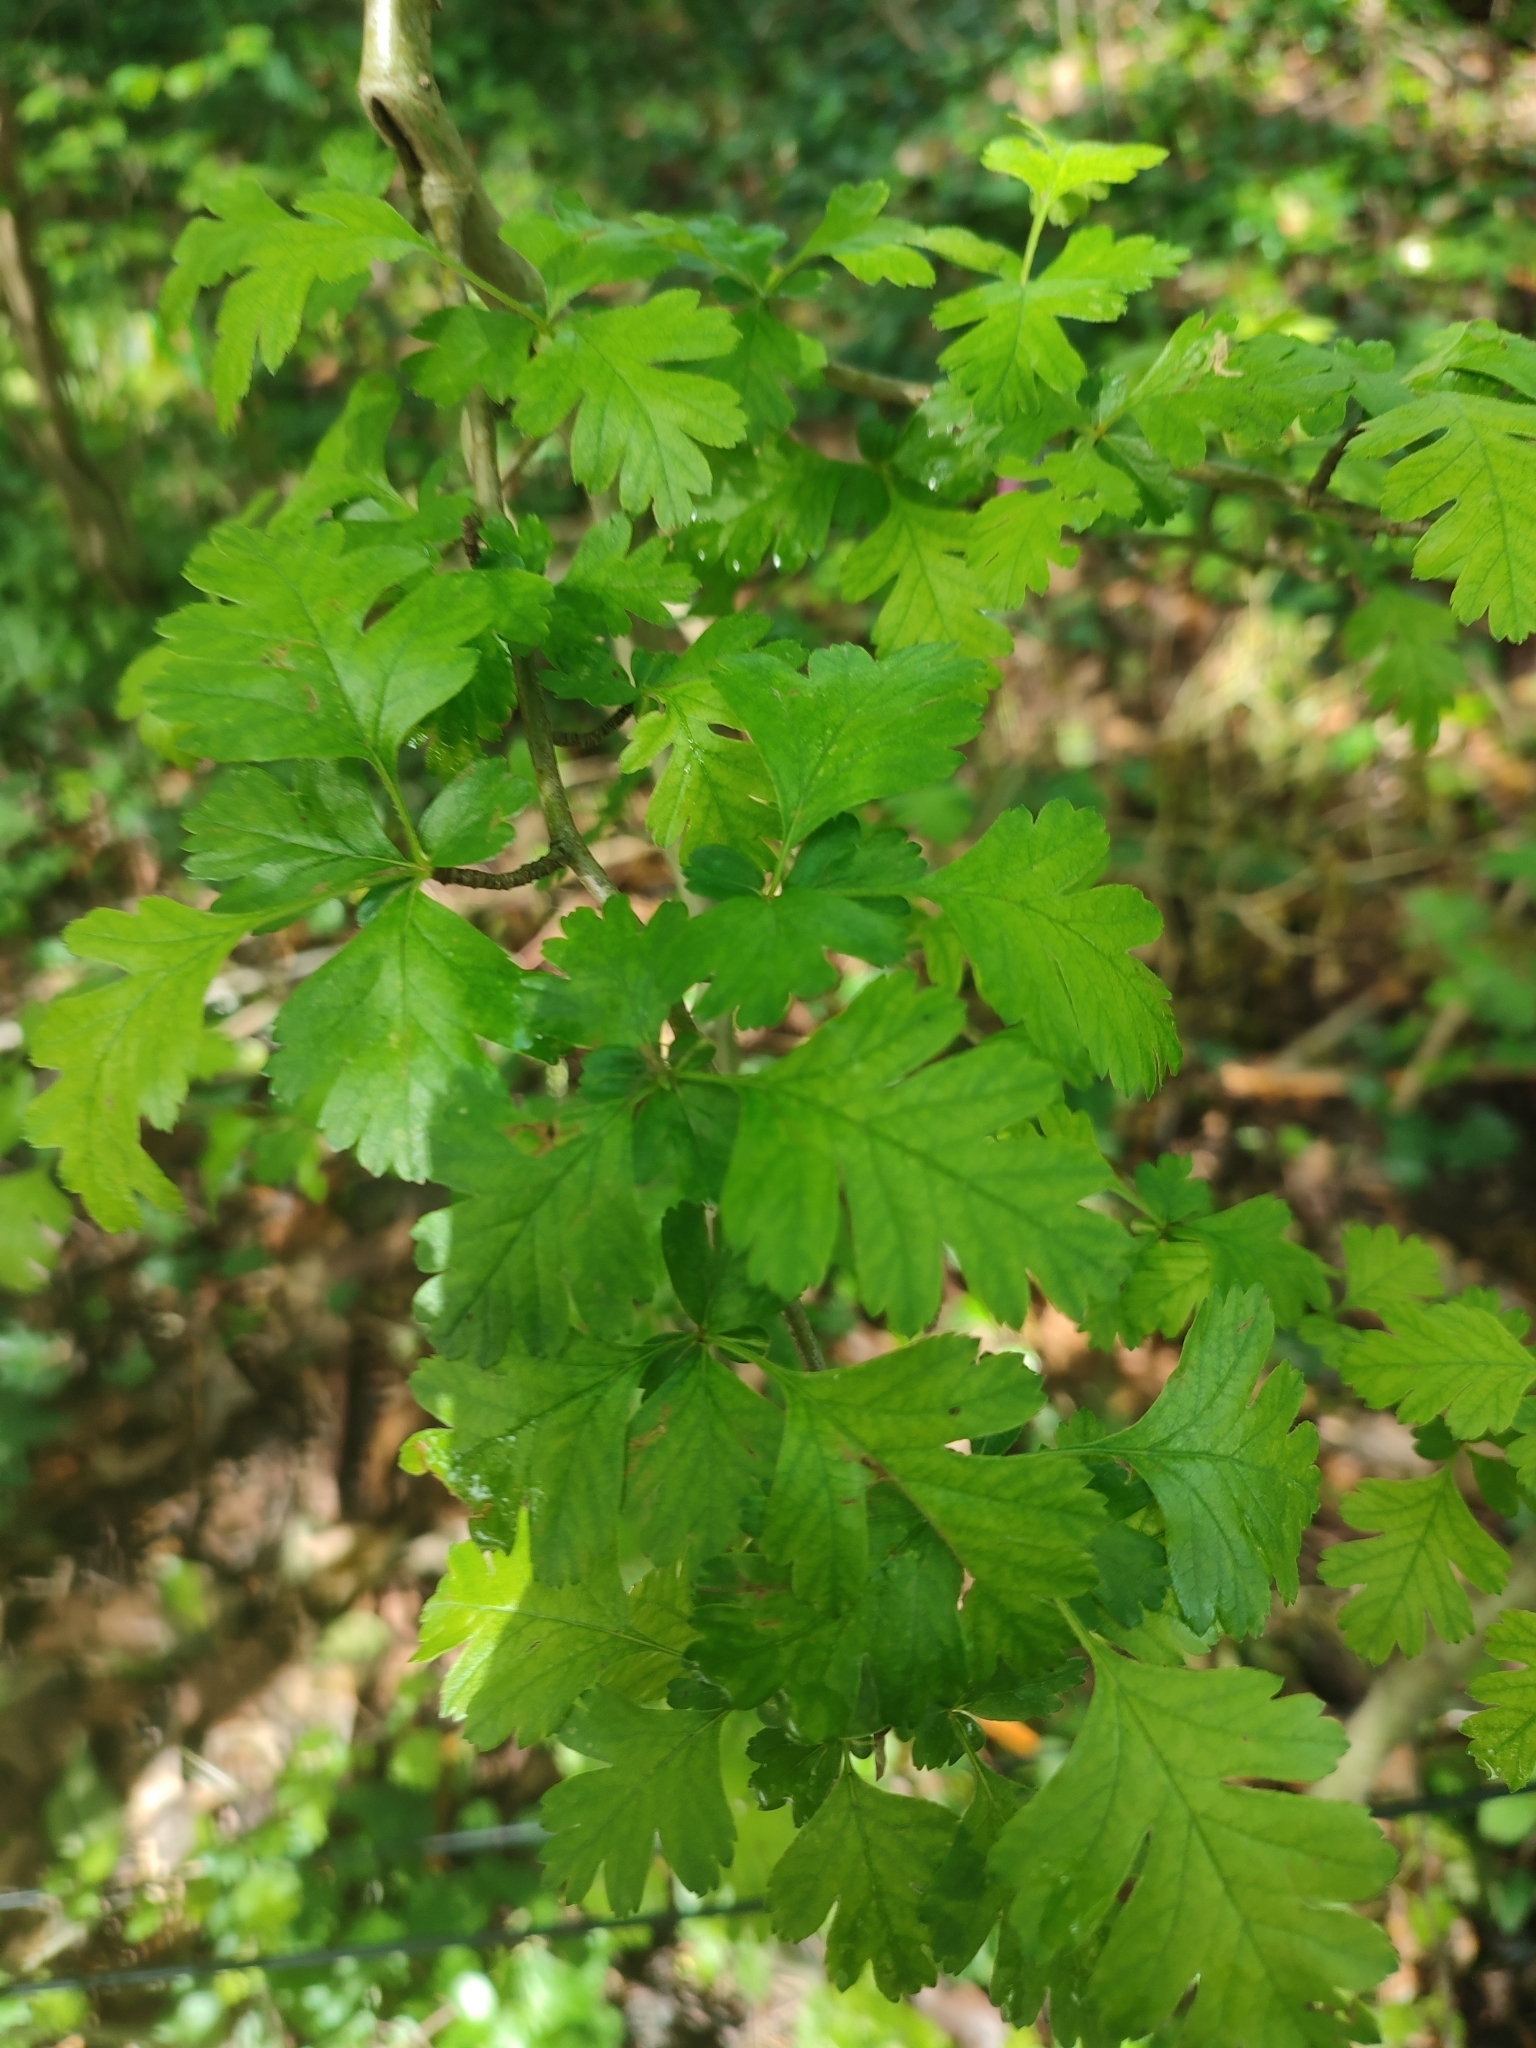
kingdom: Plantae
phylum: Tracheophyta
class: Magnoliopsida
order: Rosales
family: Rosaceae
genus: Crataegus
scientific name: Crataegus monogyna
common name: Hawthorn
